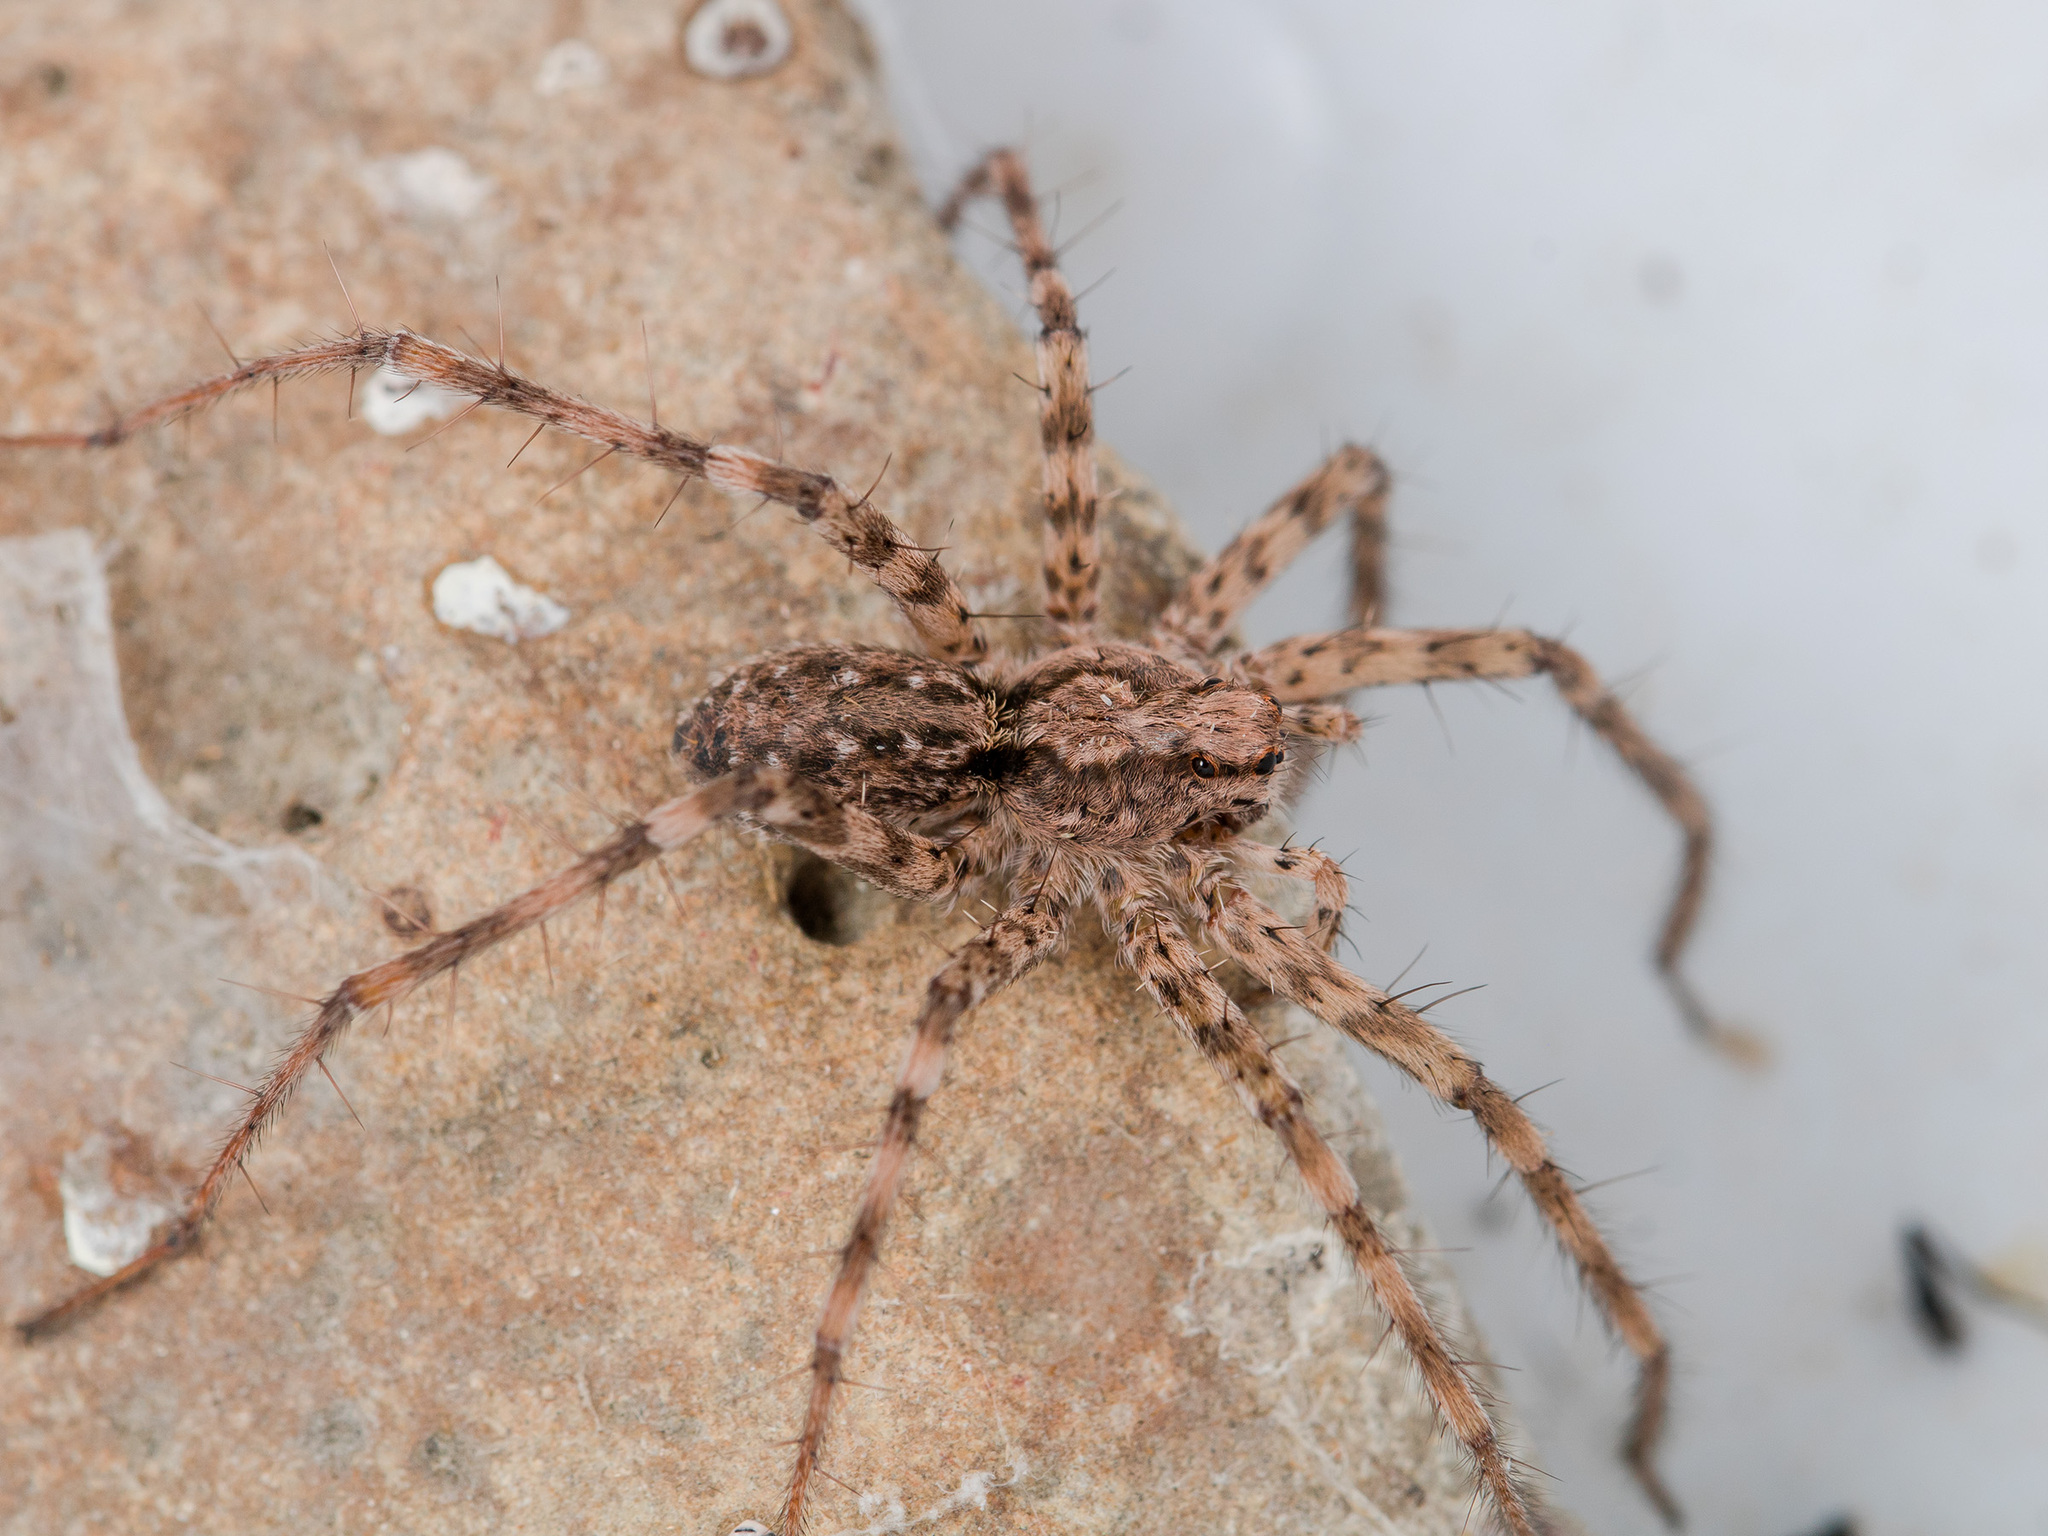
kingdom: Animalia
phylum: Arthropoda
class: Arachnida
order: Araneae
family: Lycosidae
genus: Evippa
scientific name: Evippa sjostedti
